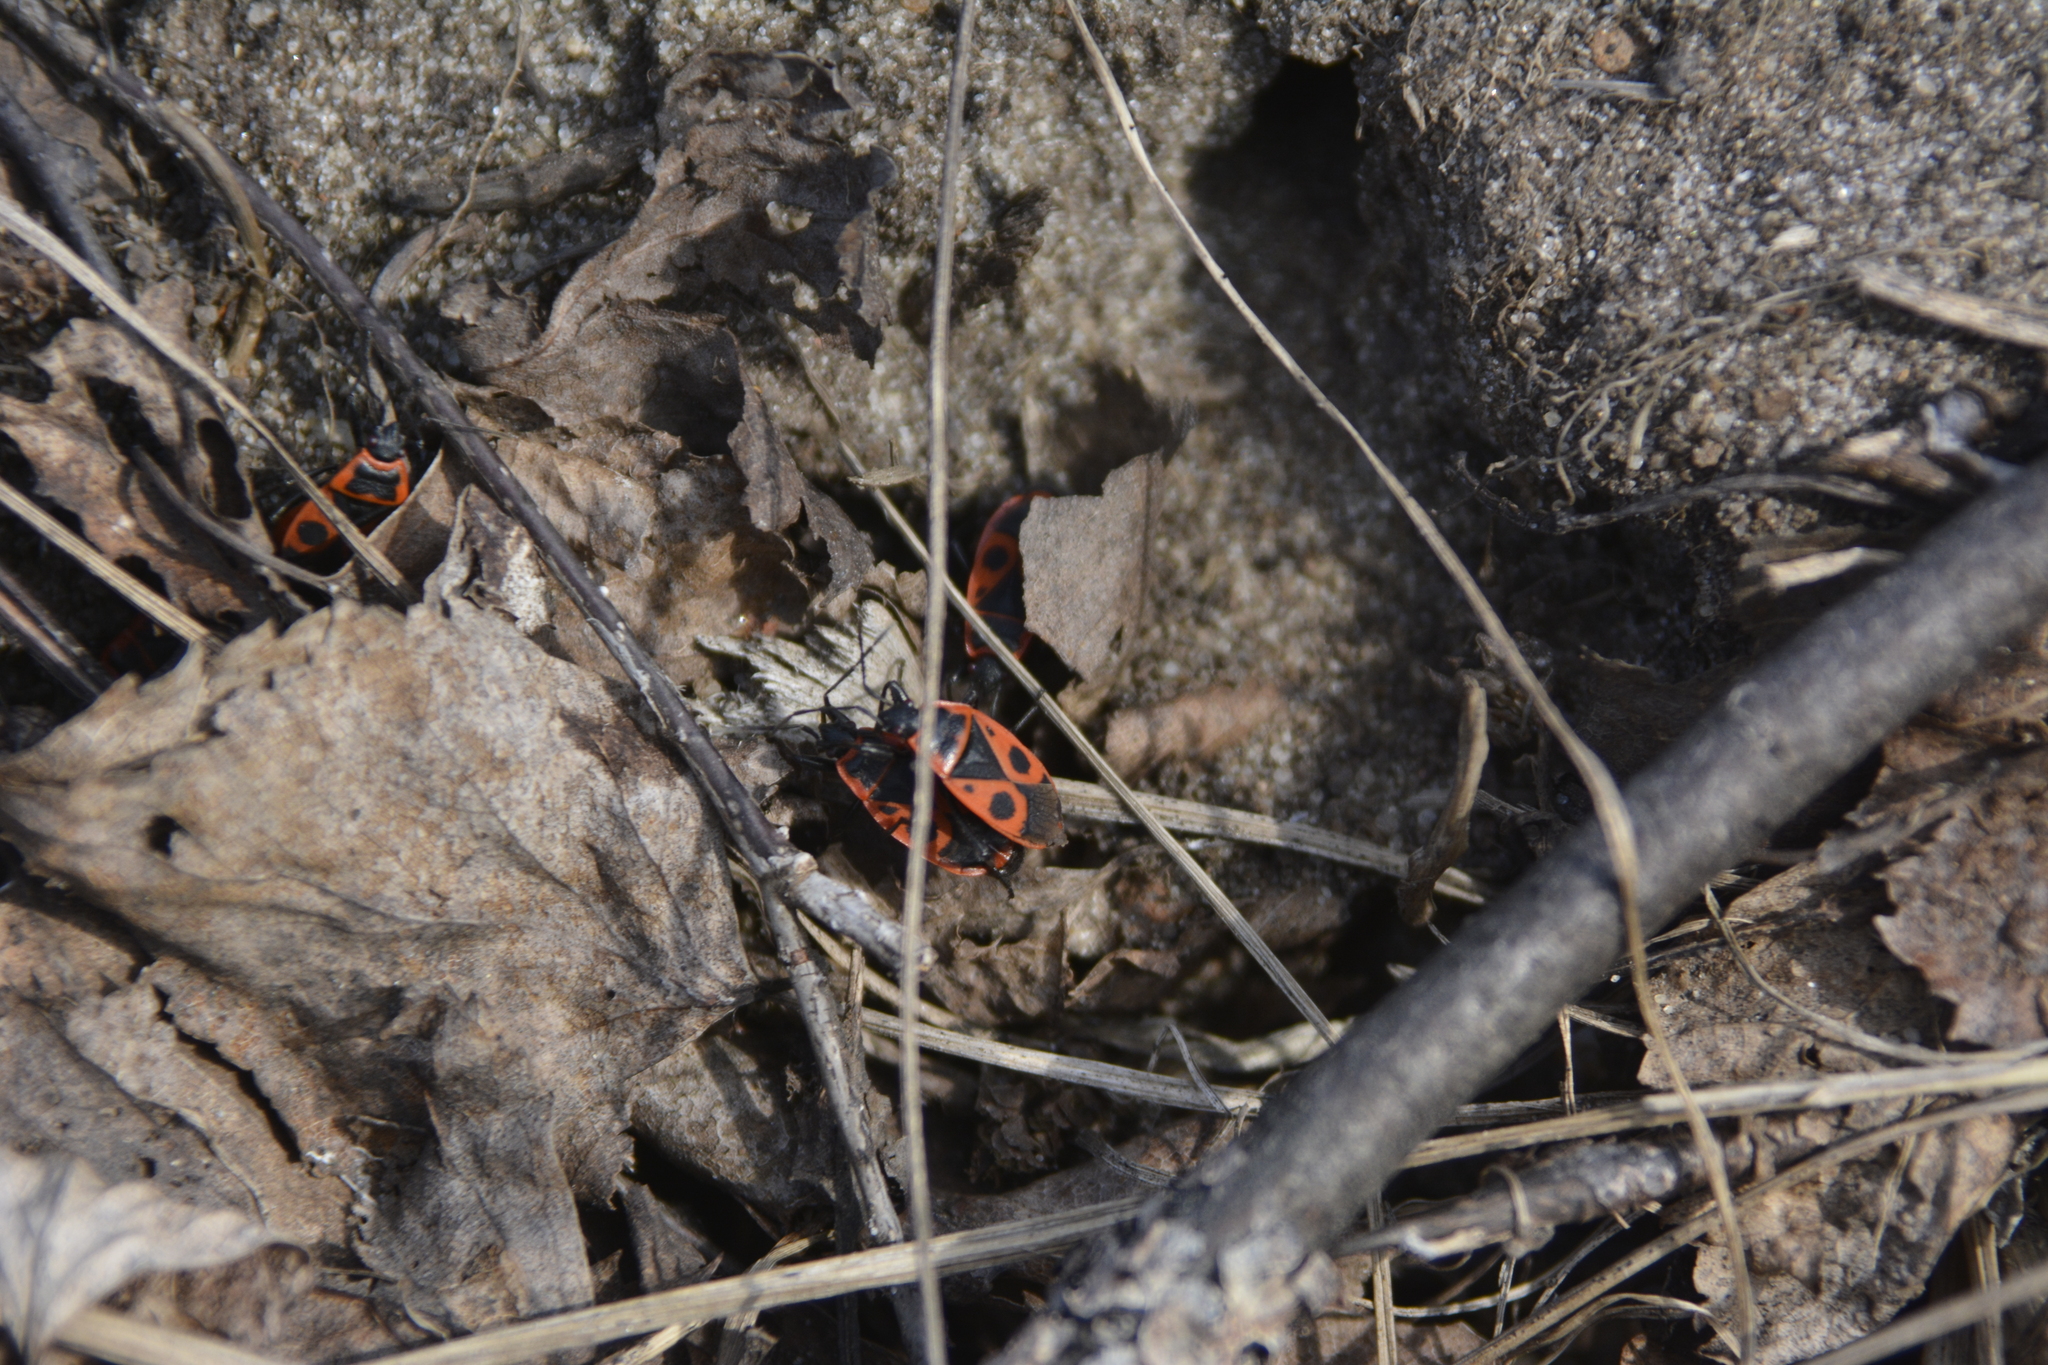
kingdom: Animalia
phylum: Arthropoda
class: Insecta
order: Hemiptera
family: Pyrrhocoridae
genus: Pyrrhocoris
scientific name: Pyrrhocoris apterus
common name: Firebug
